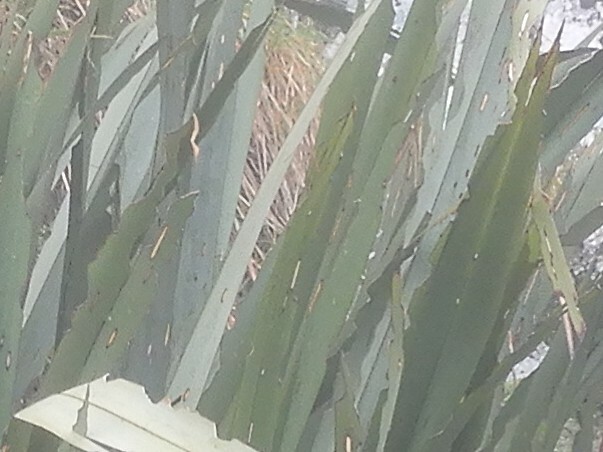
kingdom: Animalia
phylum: Arthropoda
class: Insecta
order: Lepidoptera
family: Geometridae
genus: Orthoclydon
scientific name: Orthoclydon praefectata
